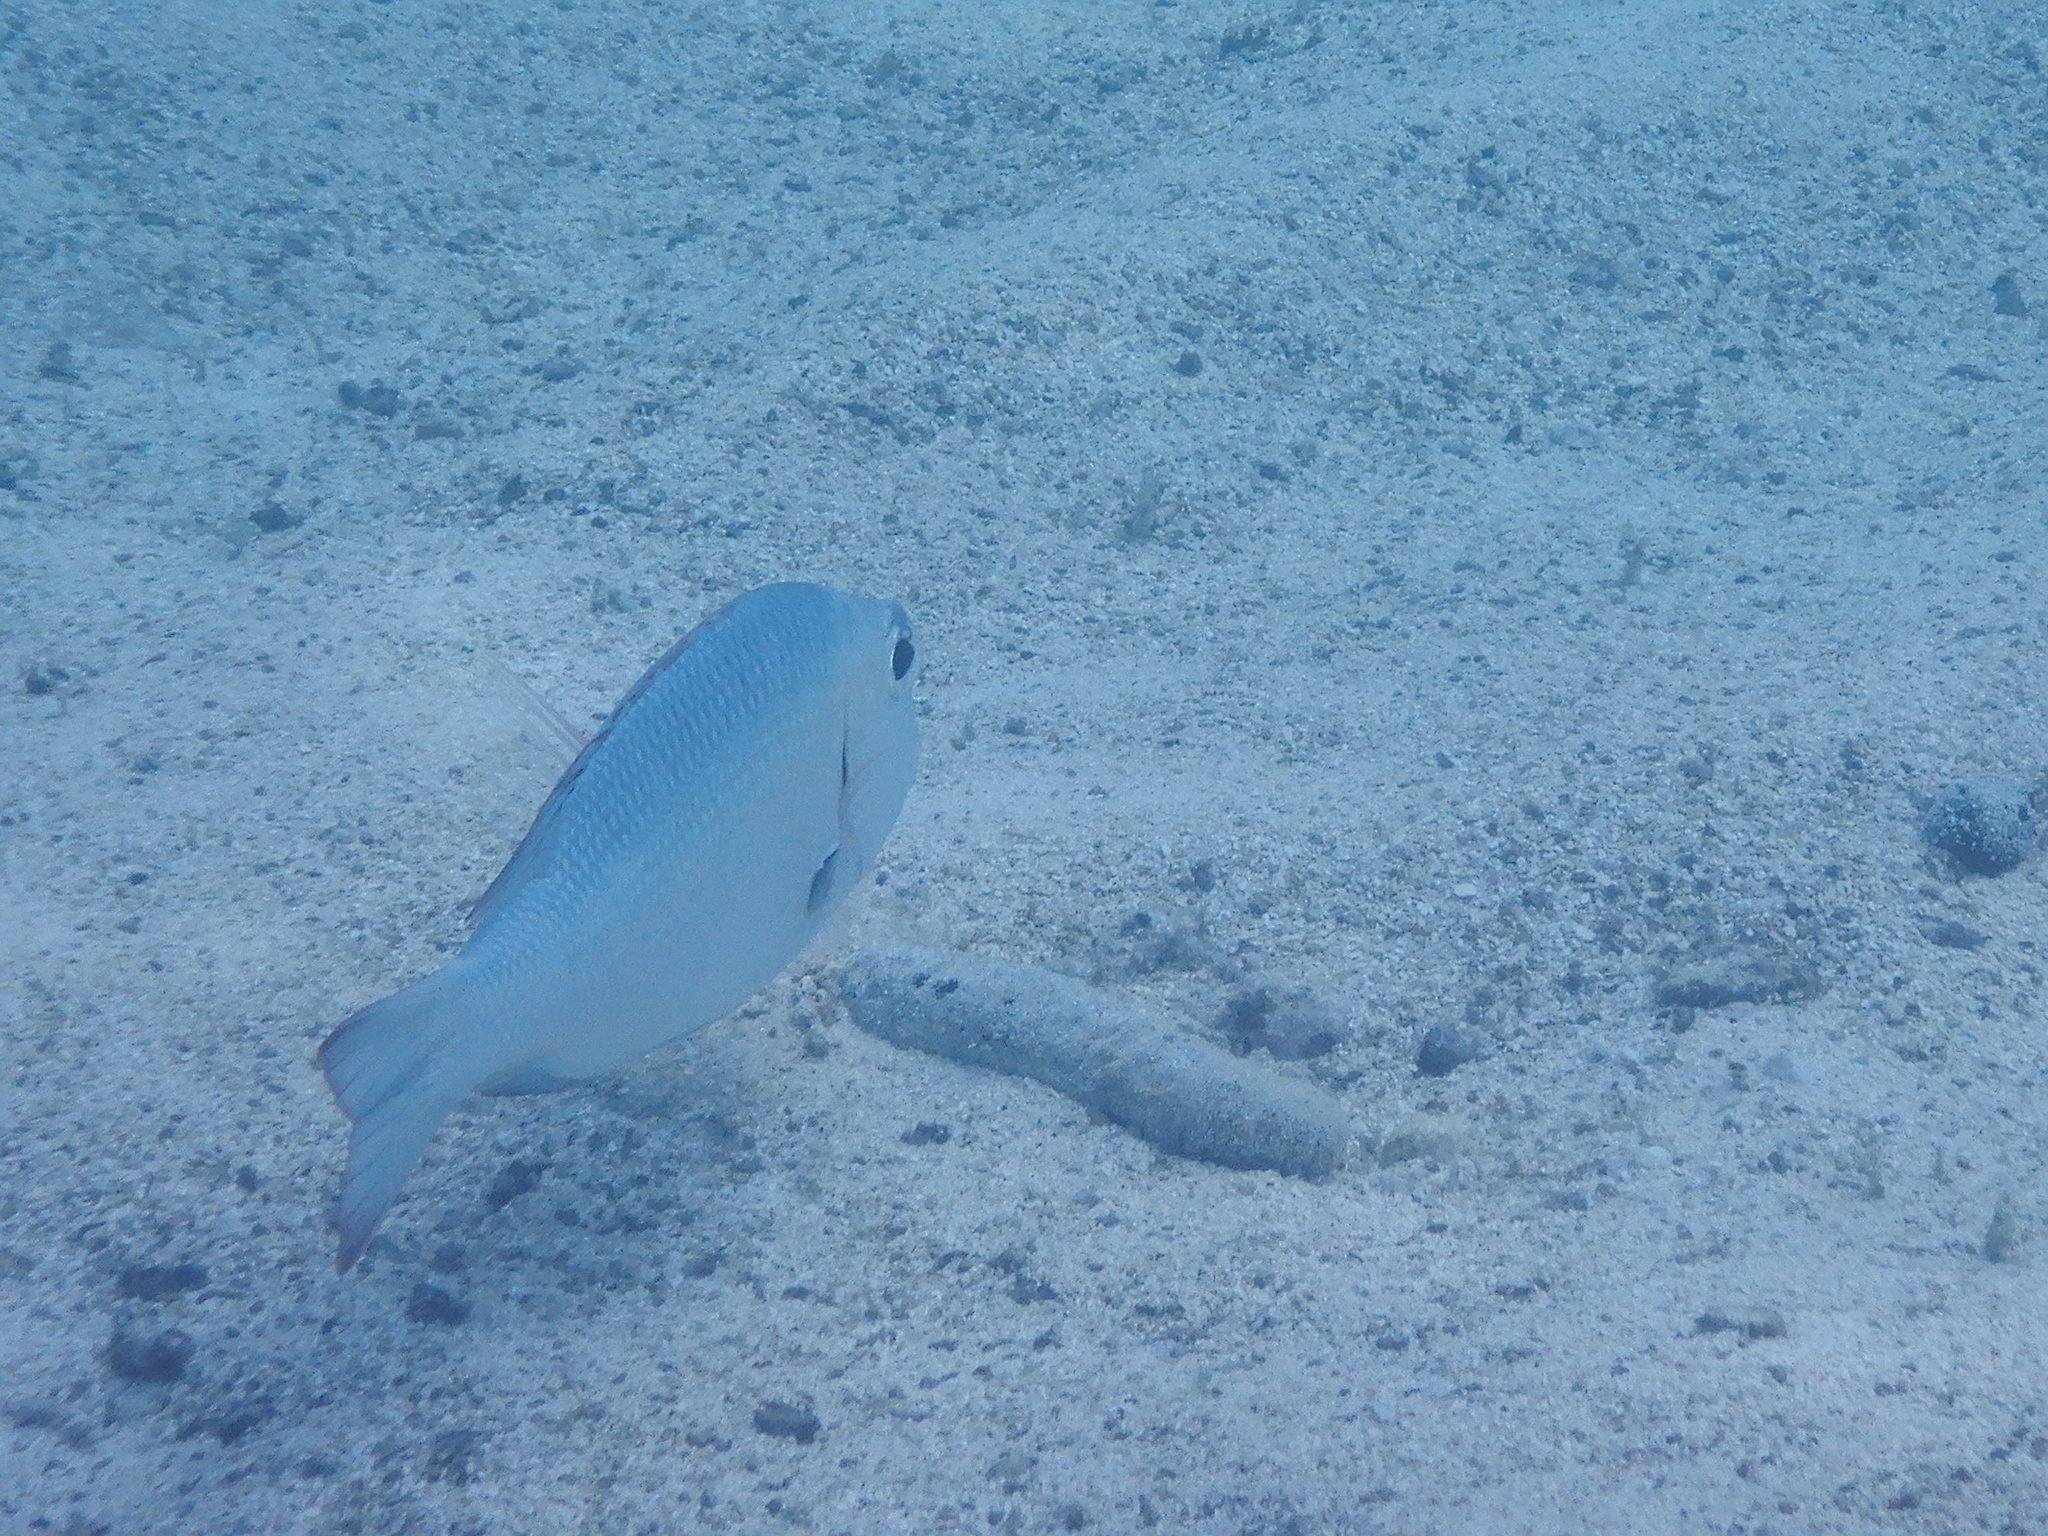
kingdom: Animalia
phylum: Chordata
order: Perciformes
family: Lethrinidae
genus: Monotaxis
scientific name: Monotaxis grandoculis
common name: Bigeye emperor
